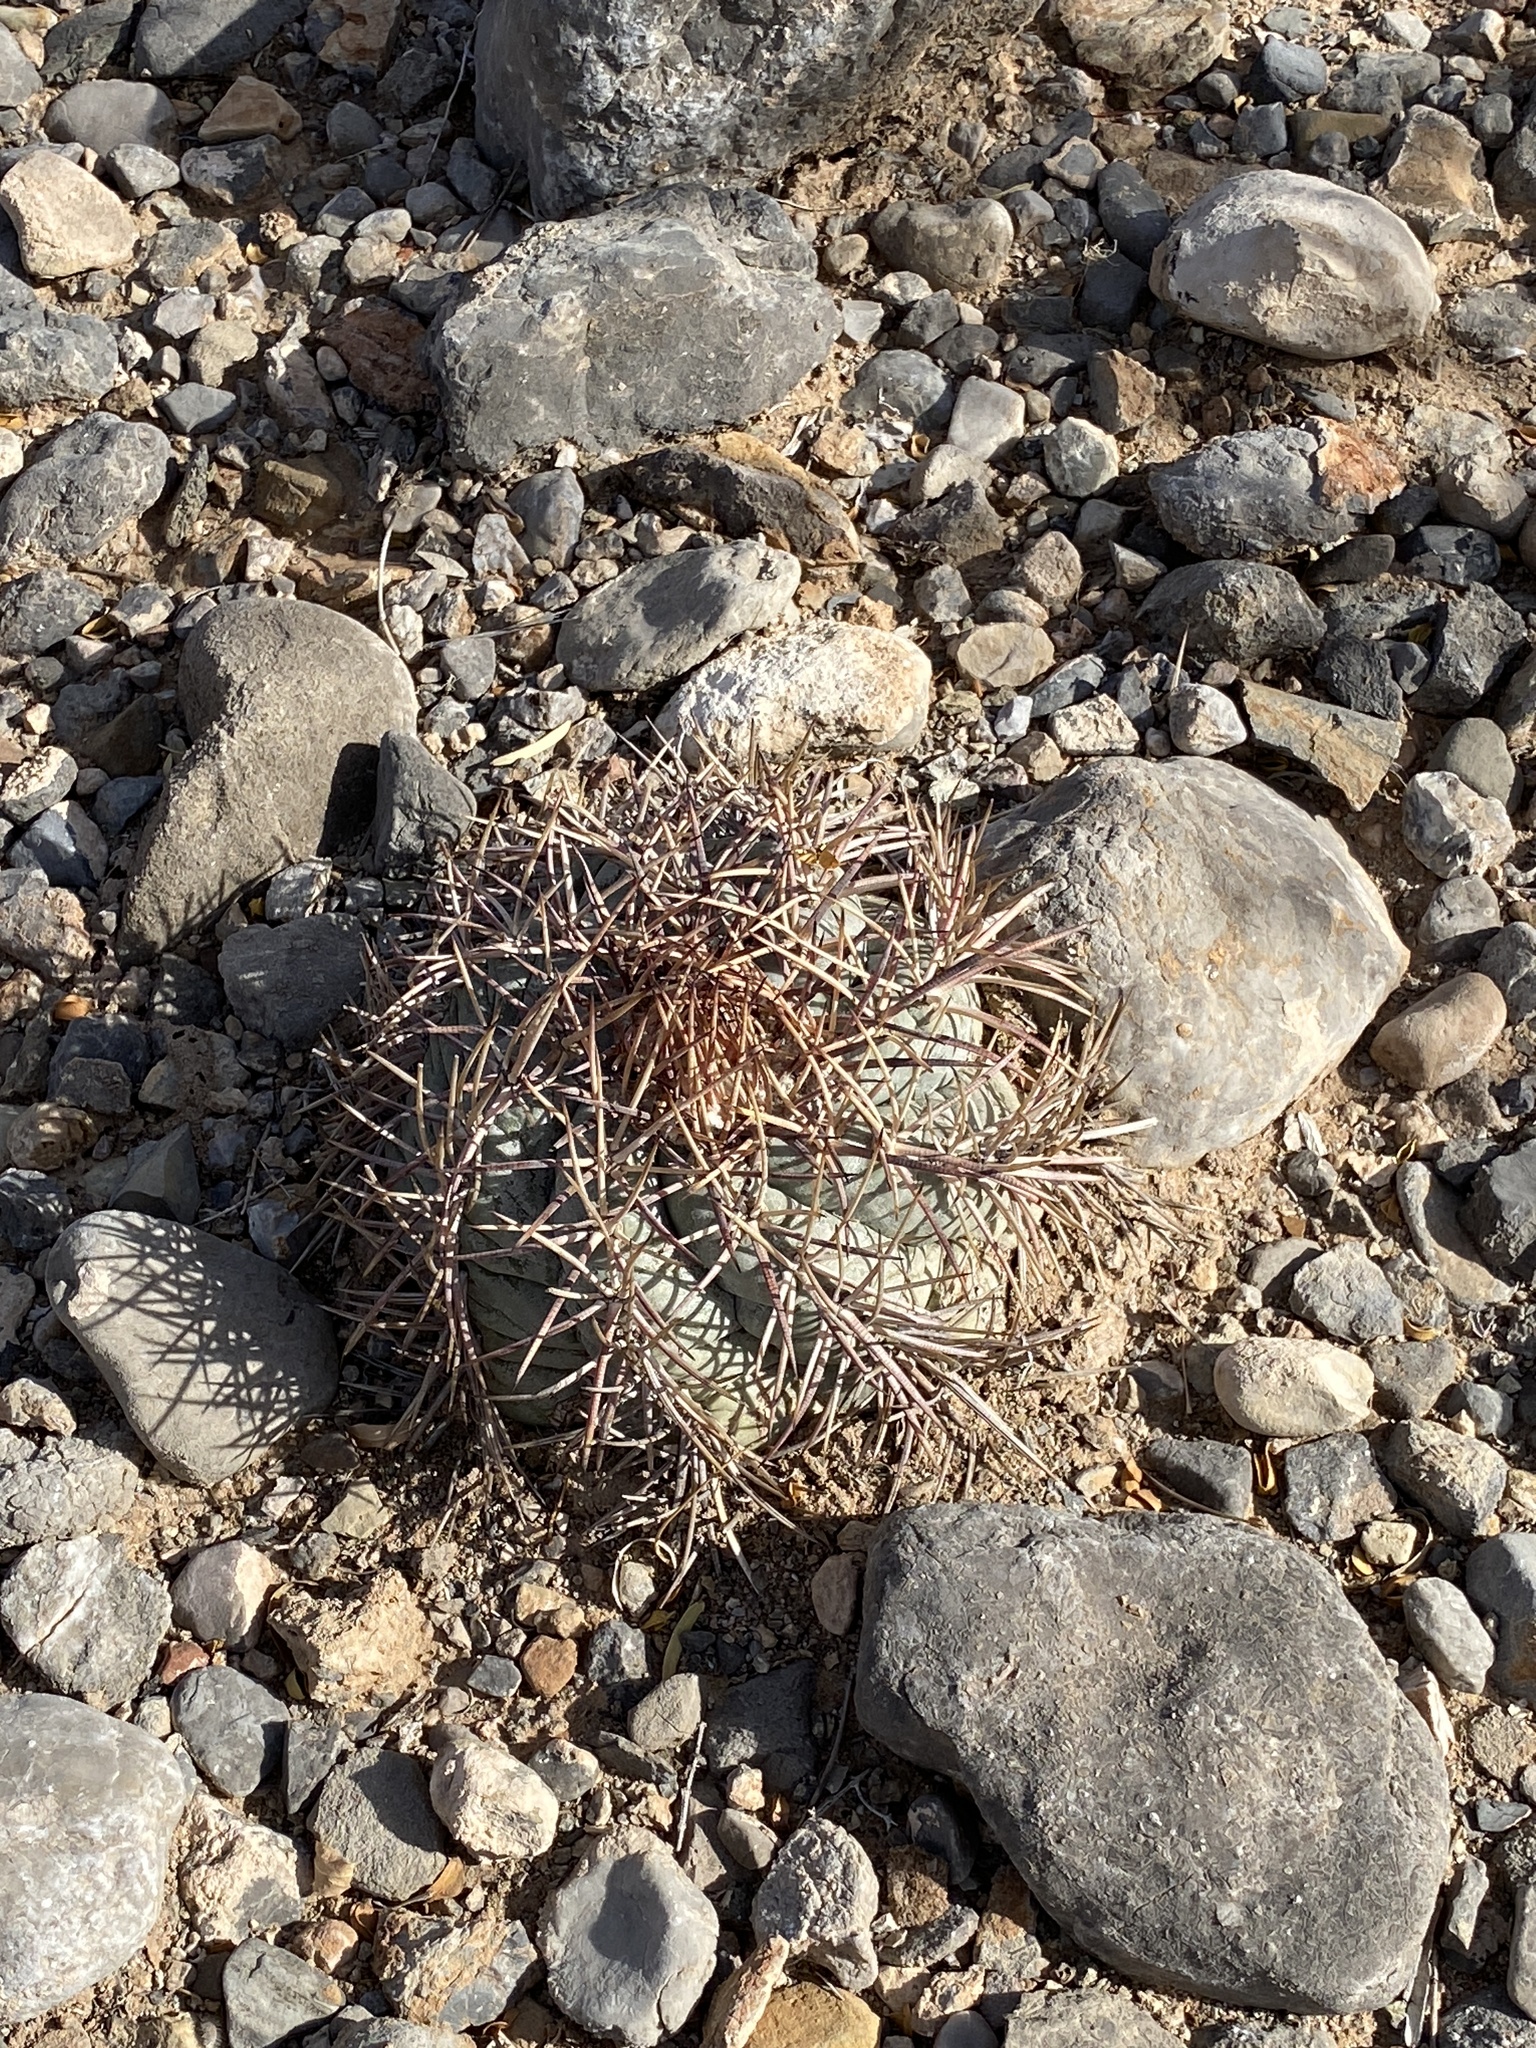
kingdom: Plantae
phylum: Tracheophyta
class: Magnoliopsida
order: Caryophyllales
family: Cactaceae
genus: Echinocactus
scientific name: Echinocactus horizonthalonius
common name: Devilshead
